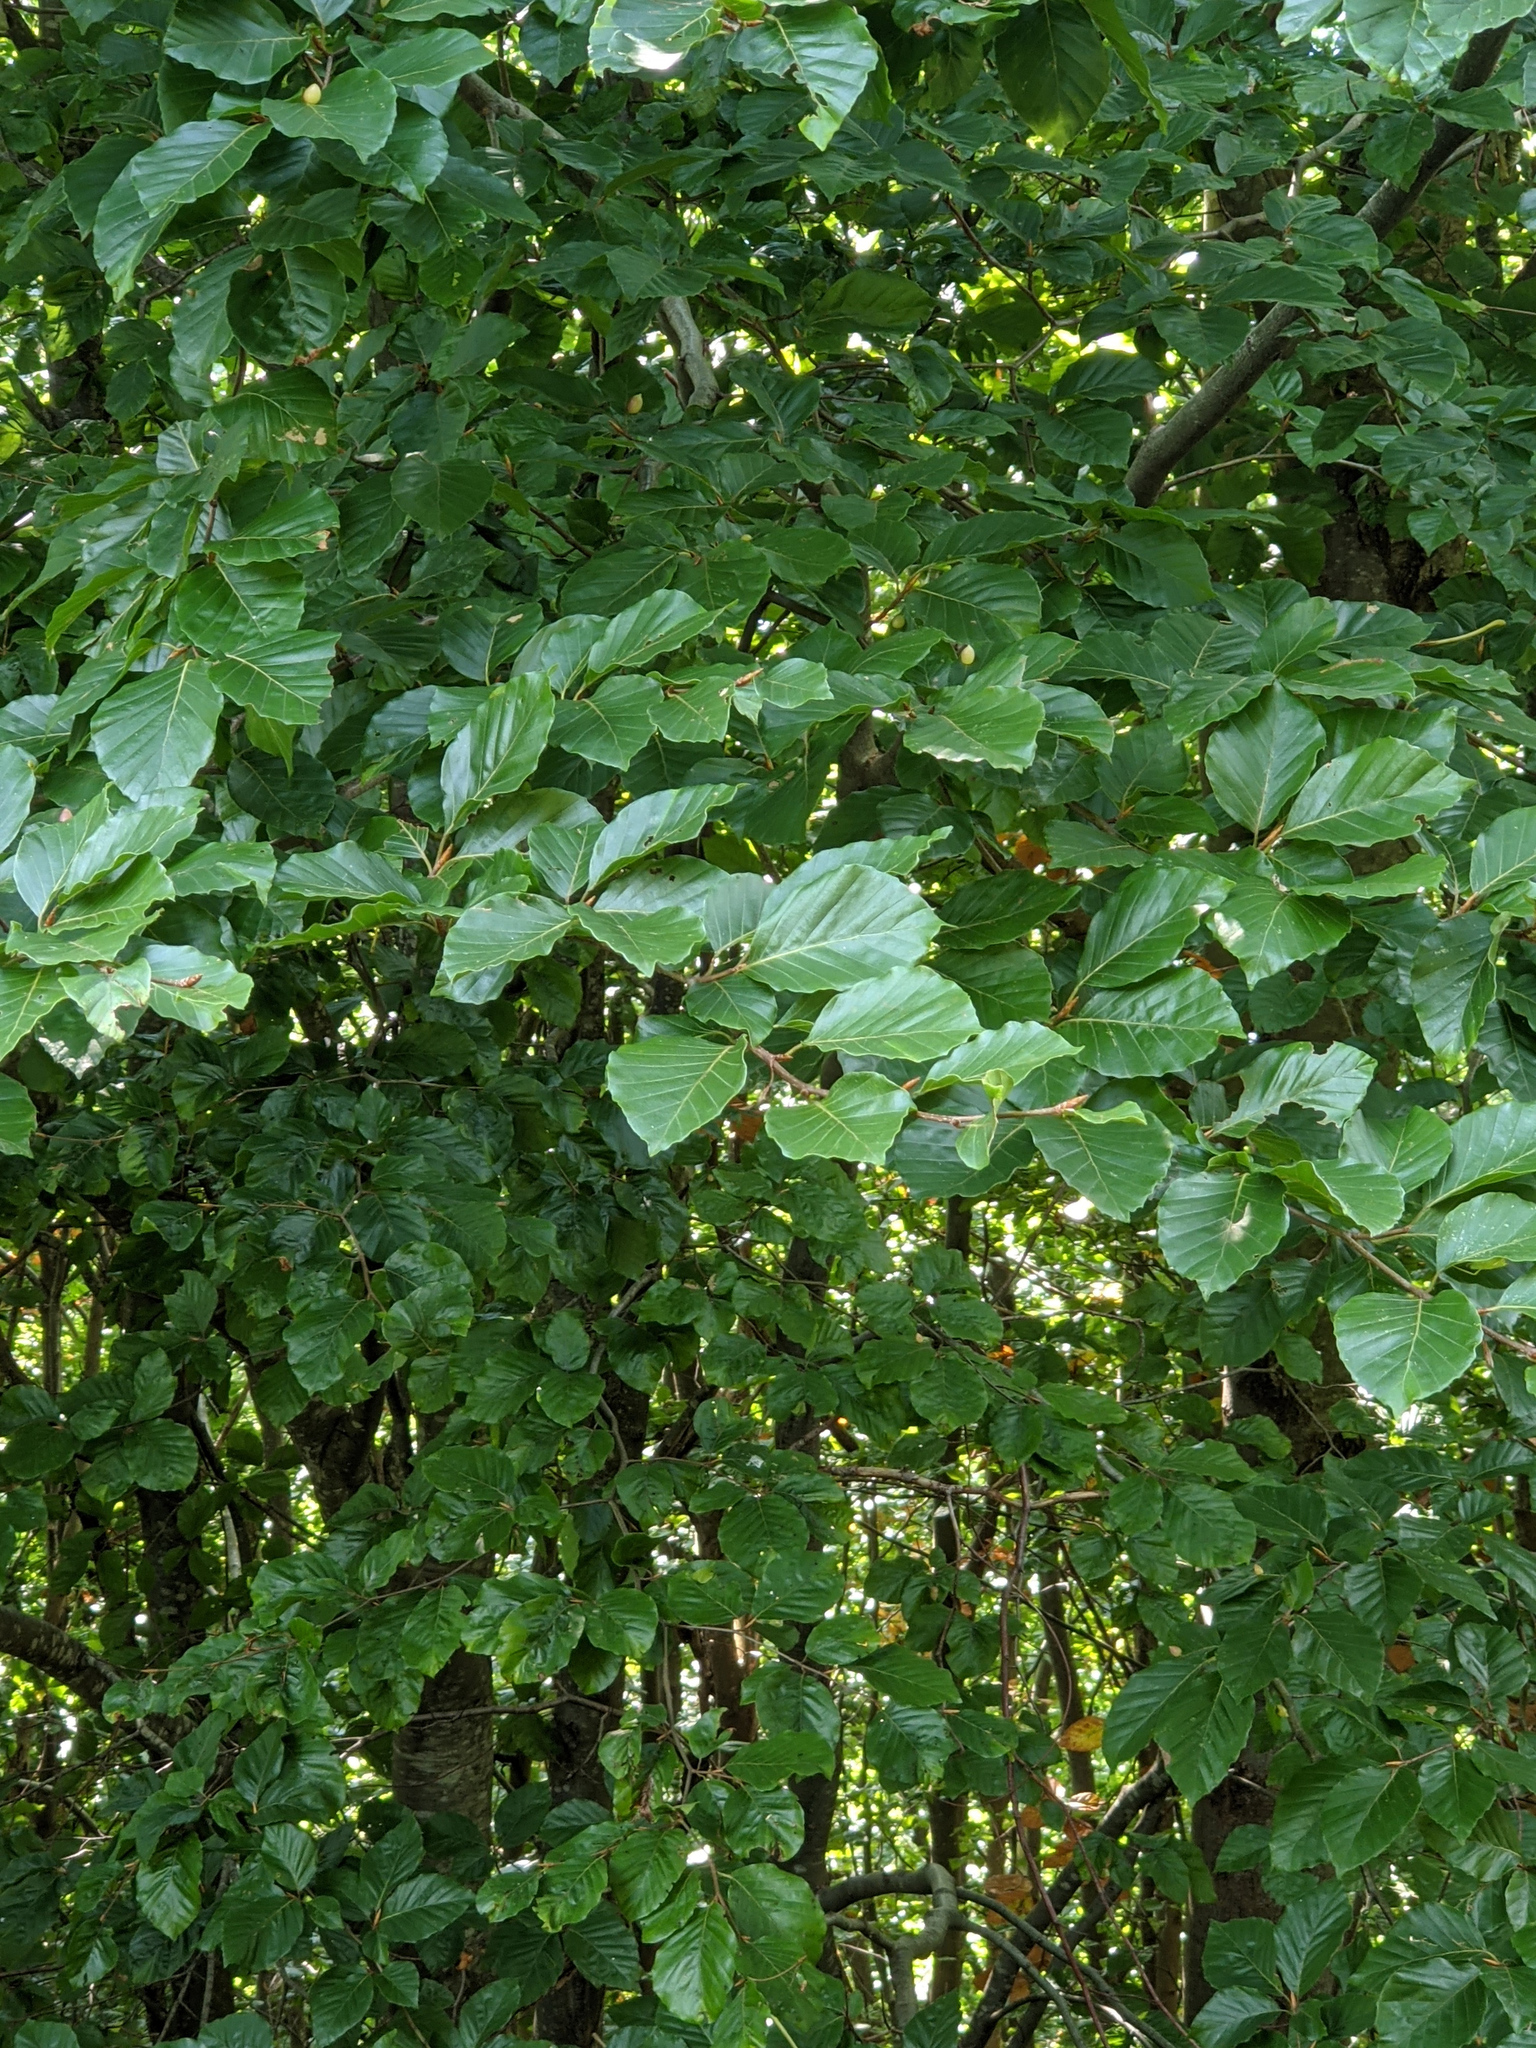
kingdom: Plantae
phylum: Tracheophyta
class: Magnoliopsida
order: Fagales
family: Fagaceae
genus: Fagus
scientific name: Fagus sylvatica
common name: Beech
